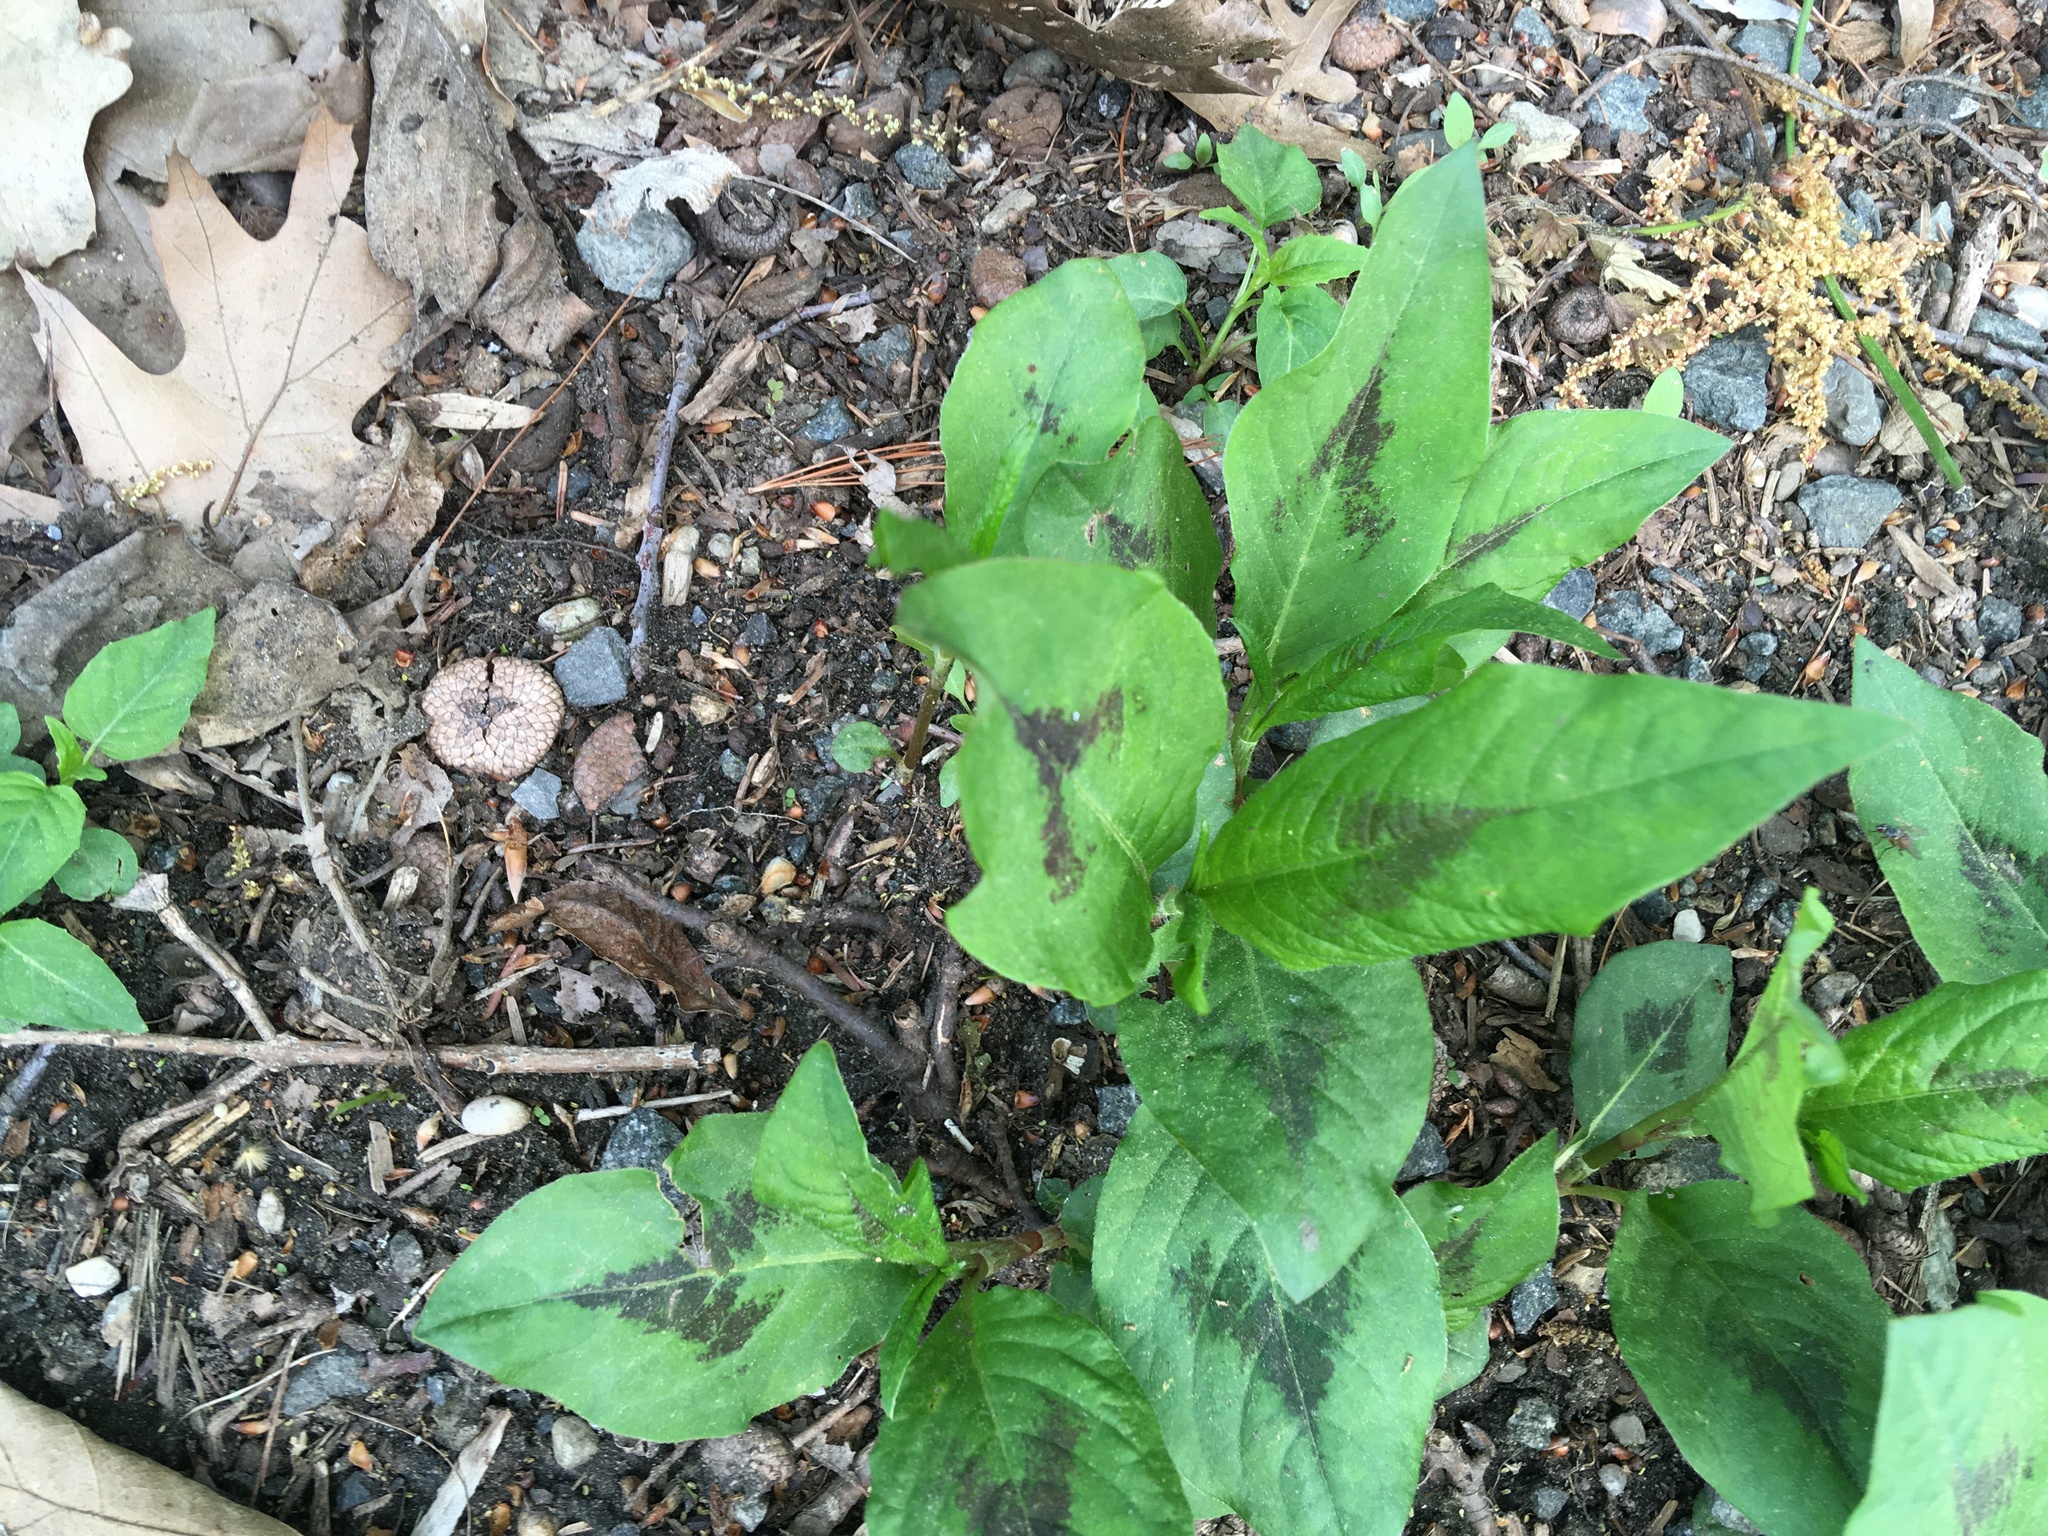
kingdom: Plantae
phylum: Tracheophyta
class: Magnoliopsida
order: Caryophyllales
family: Polygonaceae
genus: Persicaria
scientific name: Persicaria virginiana
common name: Jumpseed
